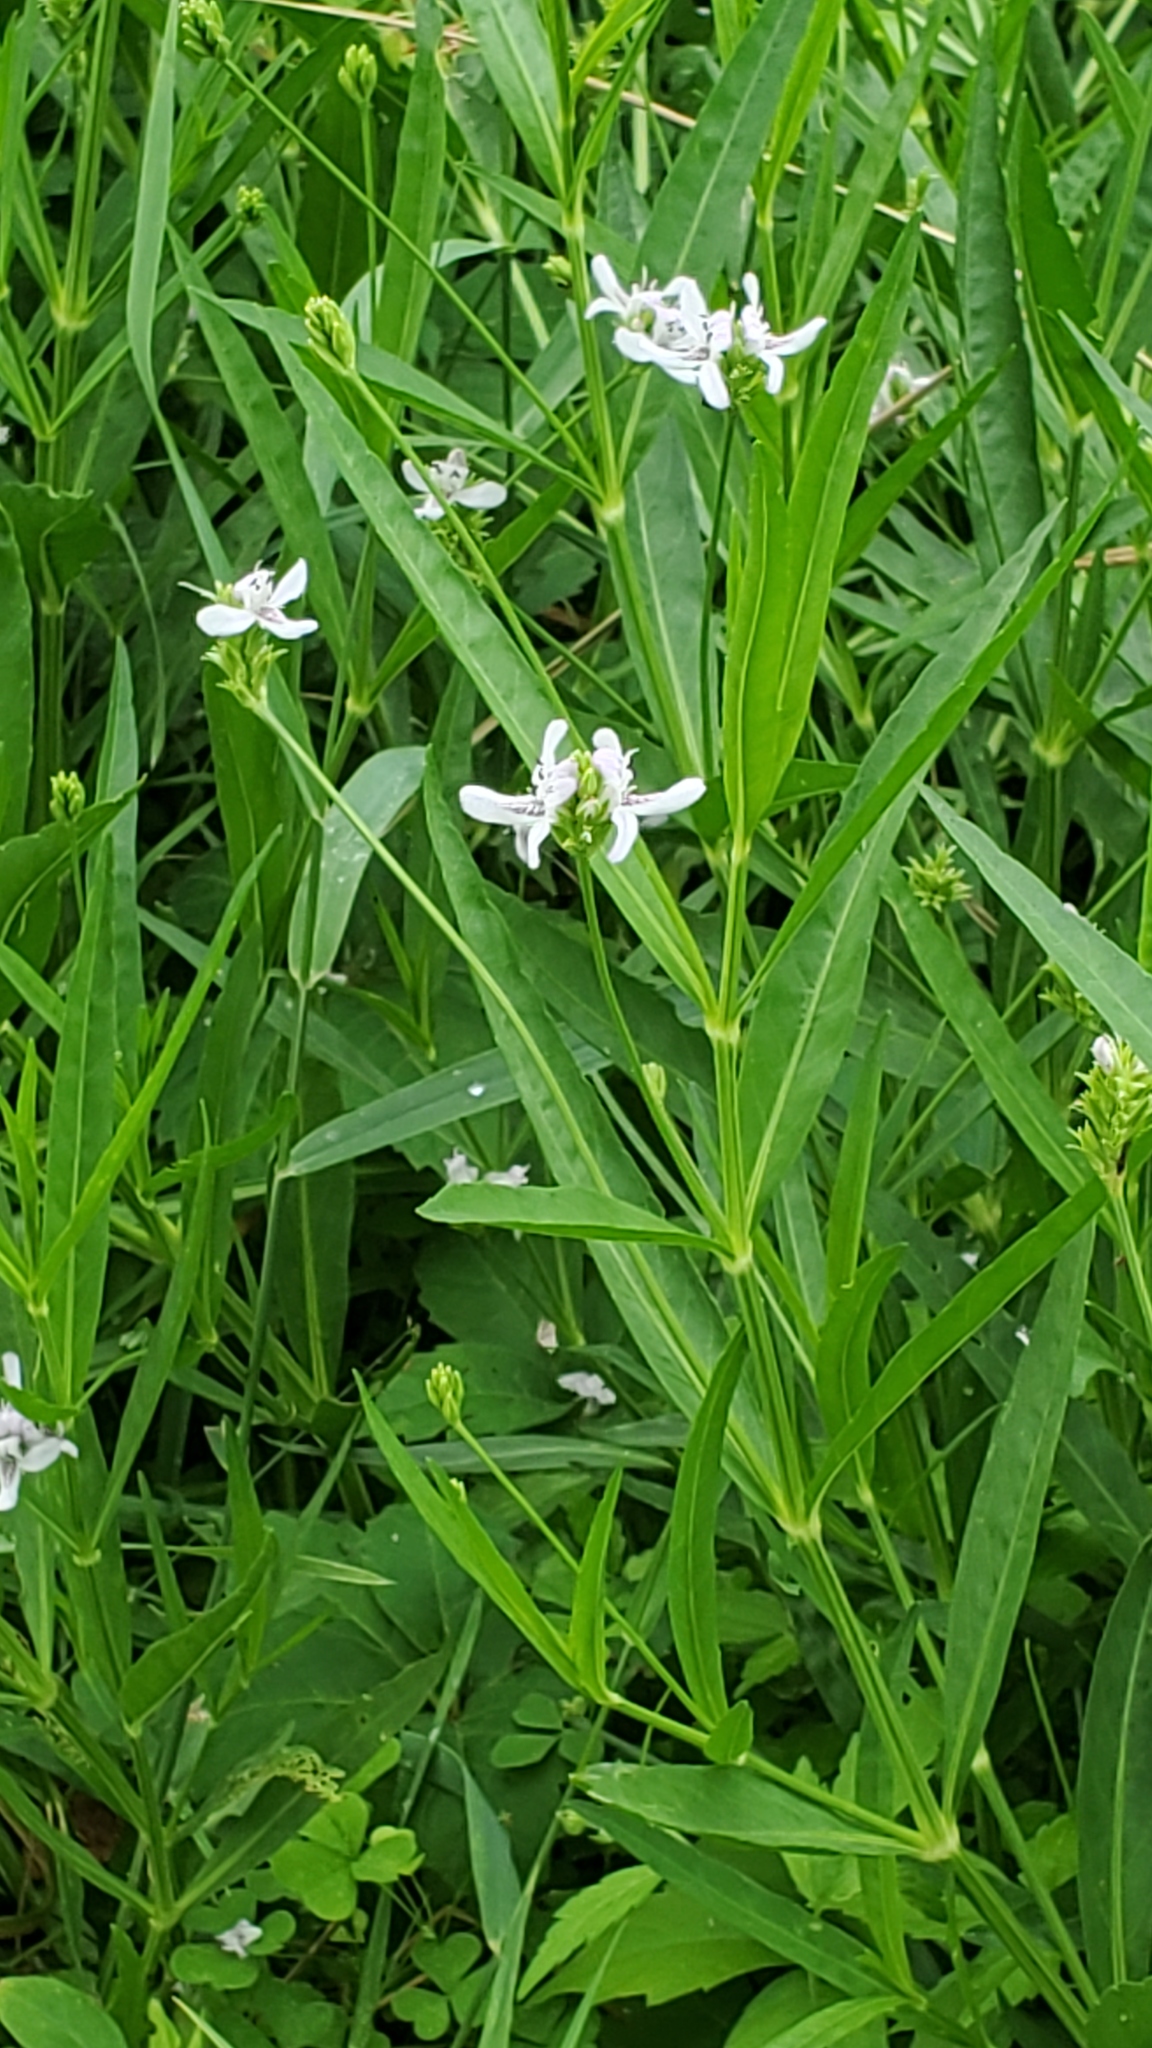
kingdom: Plantae
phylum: Tracheophyta
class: Magnoliopsida
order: Lamiales
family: Acanthaceae
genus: Dianthera
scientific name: Dianthera americana
